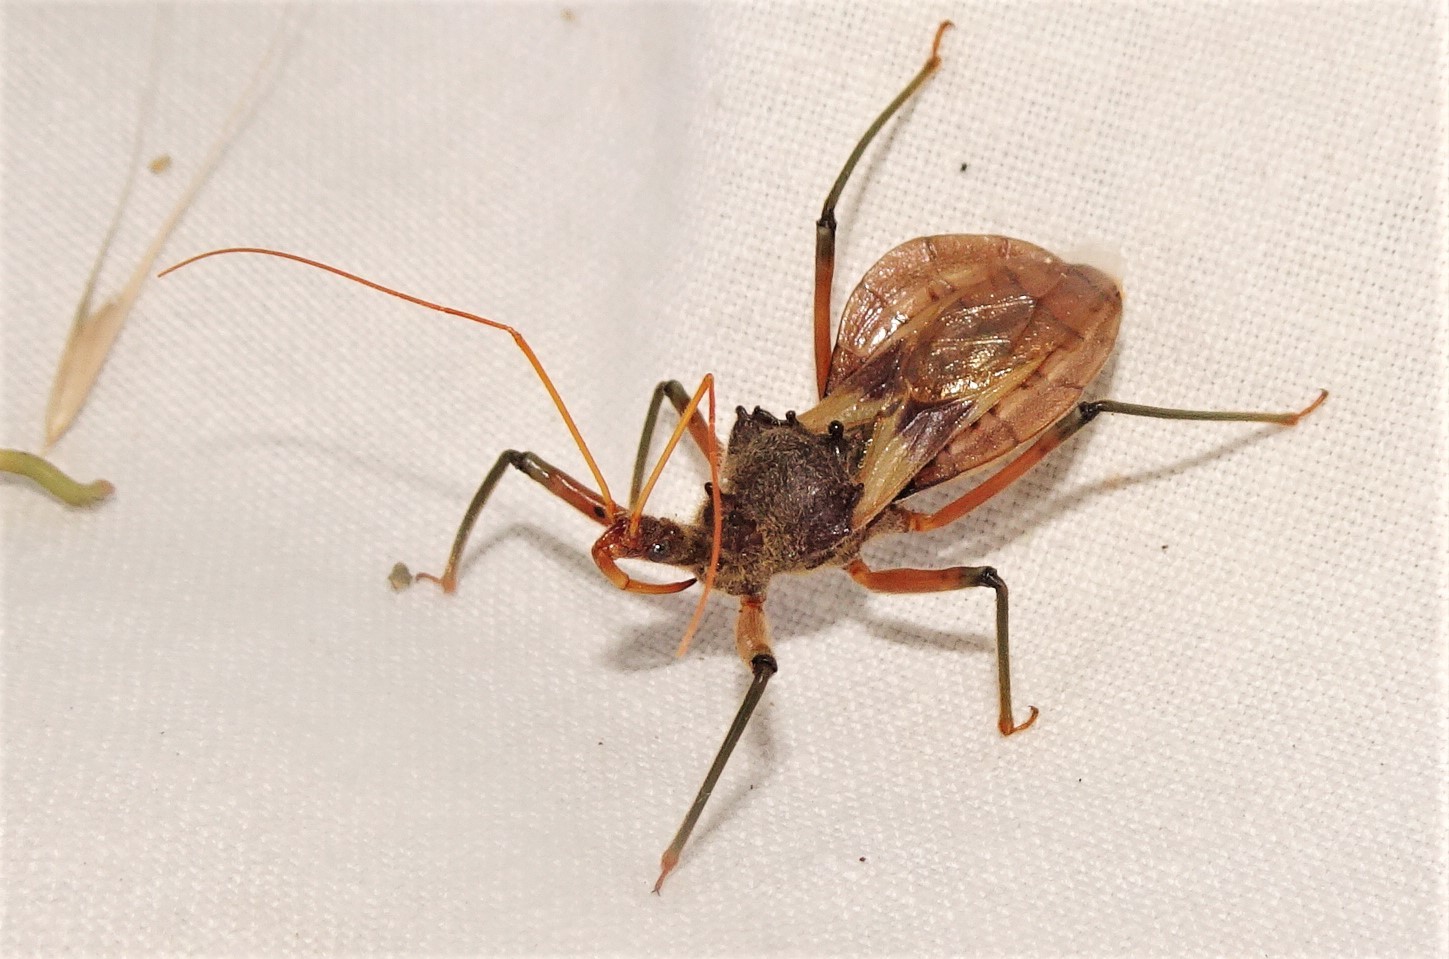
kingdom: Animalia
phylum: Arthropoda
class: Insecta
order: Hemiptera
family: Reduviidae
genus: Pristhesancus
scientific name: Pristhesancus plagipennis
